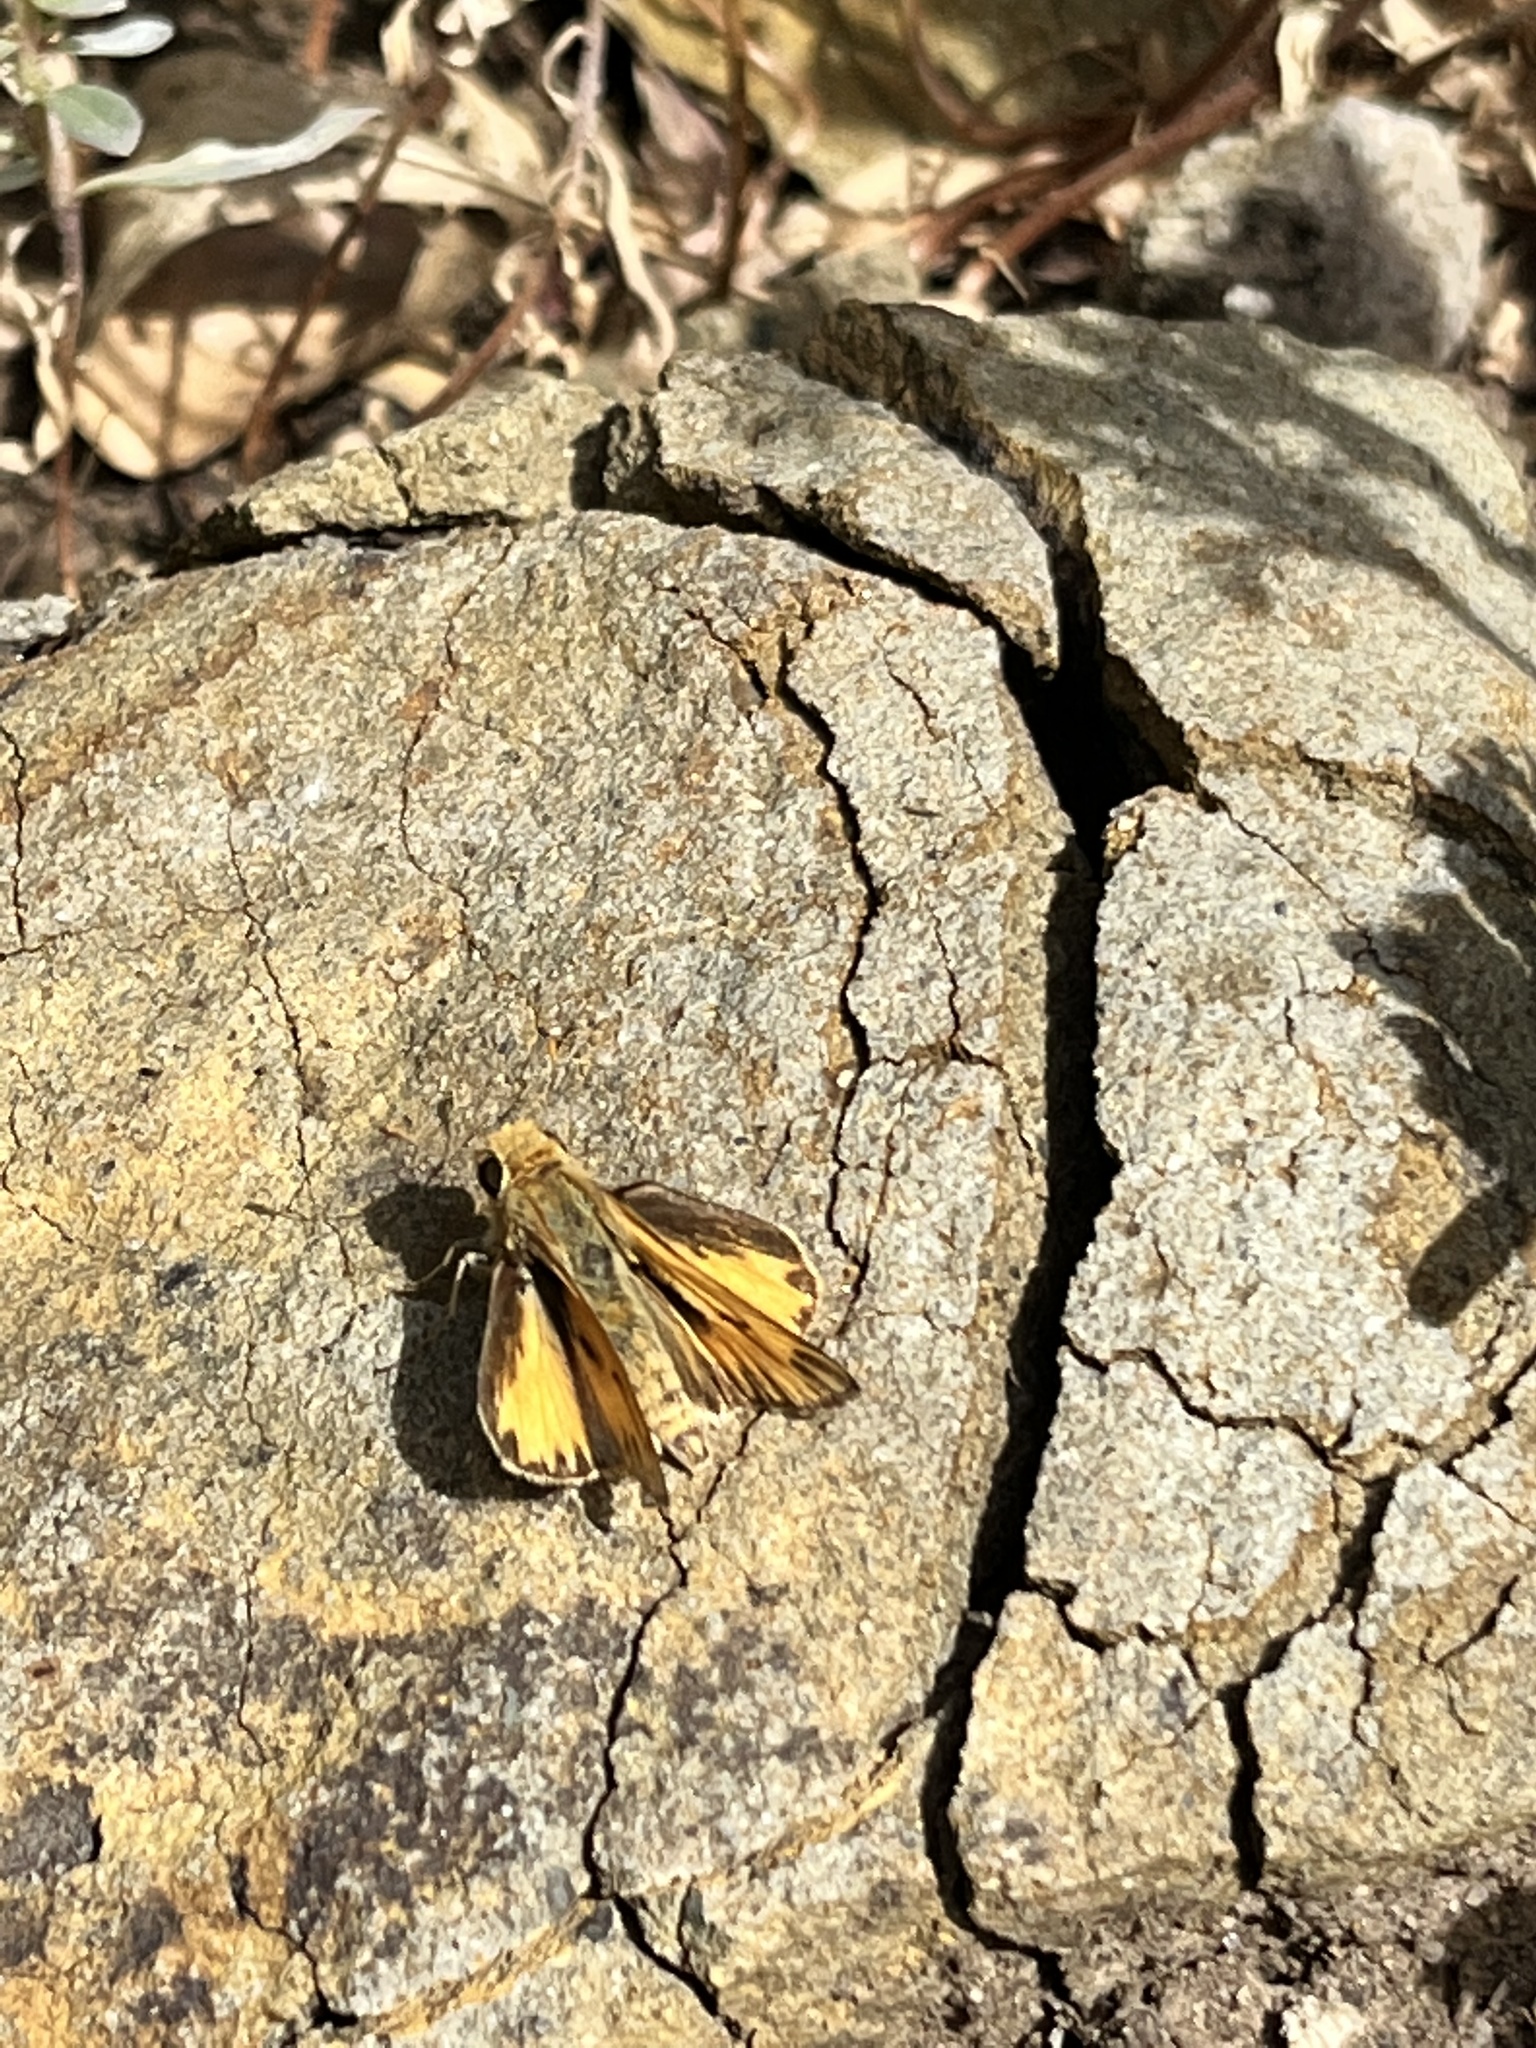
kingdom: Animalia
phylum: Arthropoda
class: Insecta
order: Lepidoptera
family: Hesperiidae
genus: Hylephila
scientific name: Hylephila phyleus
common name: Fiery skipper
